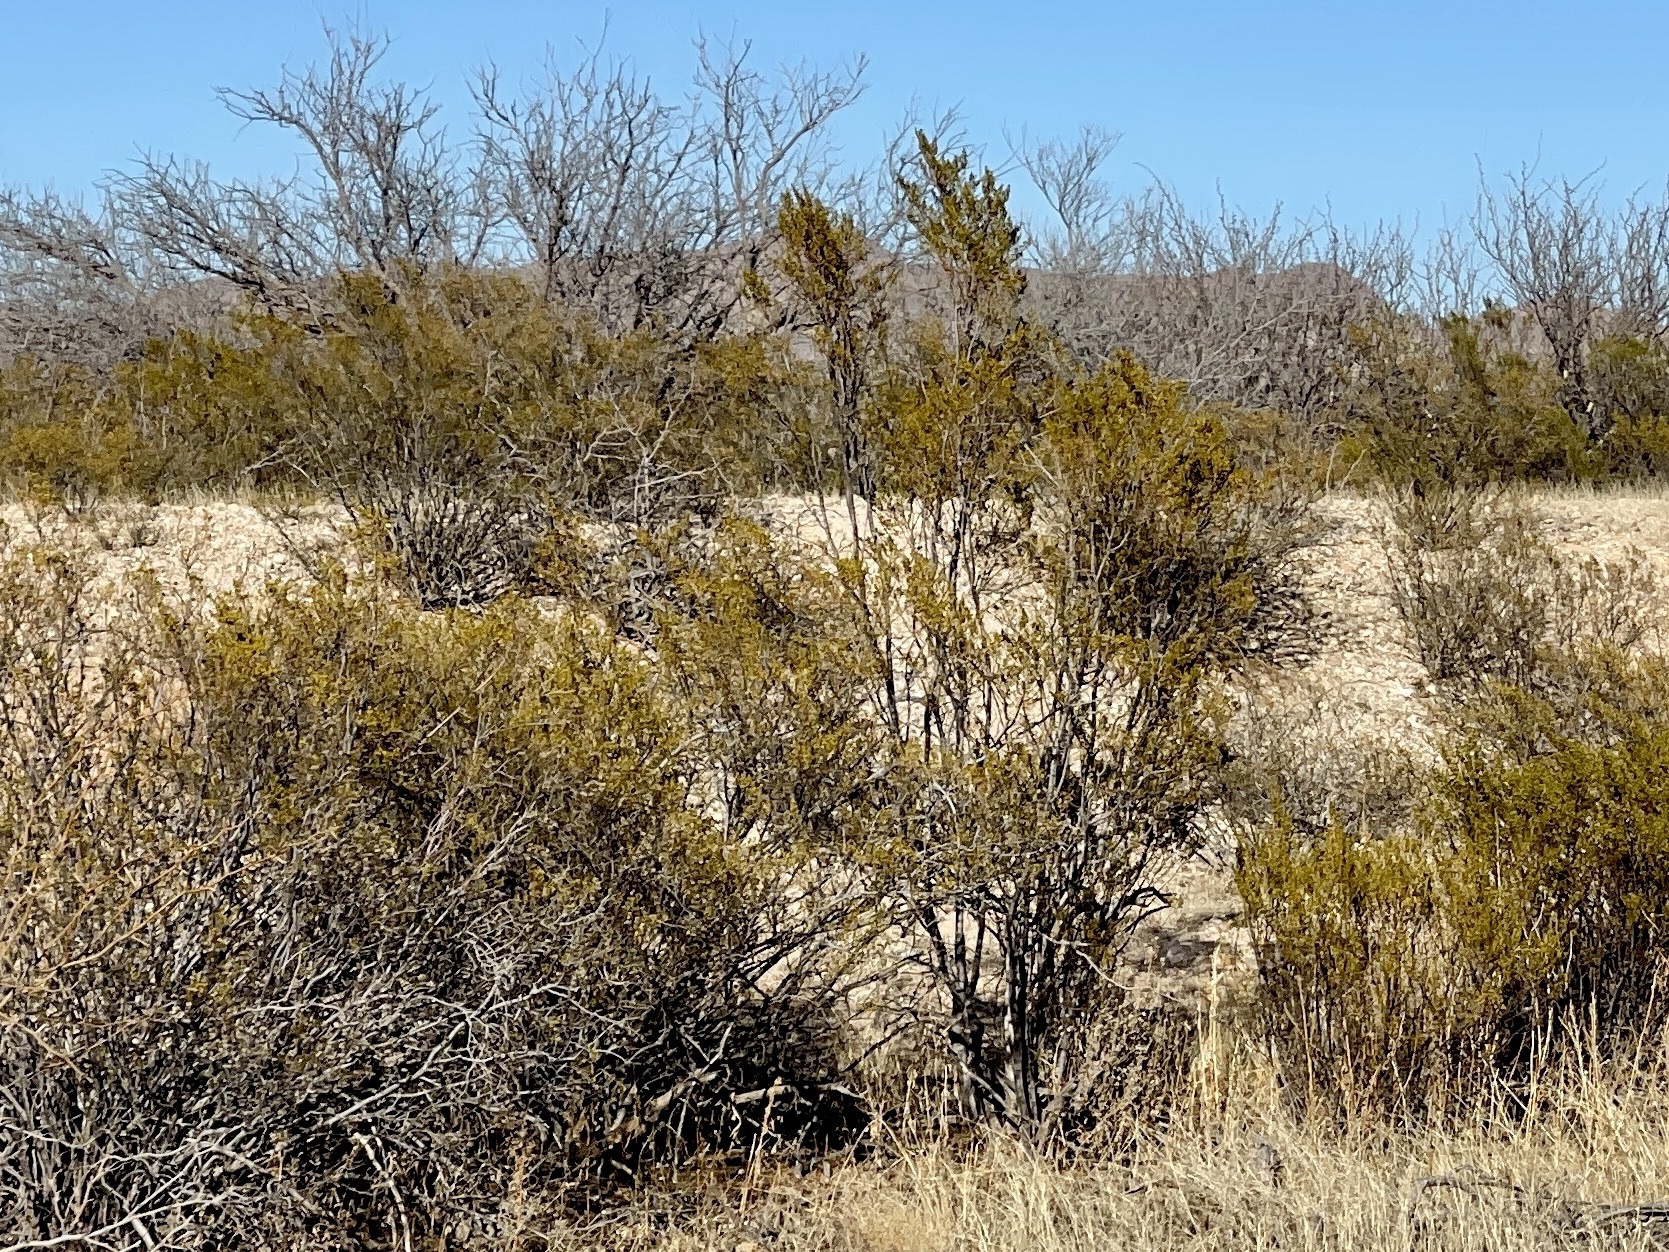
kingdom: Plantae
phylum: Tracheophyta
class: Magnoliopsida
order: Zygophyllales
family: Zygophyllaceae
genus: Larrea
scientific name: Larrea tridentata
